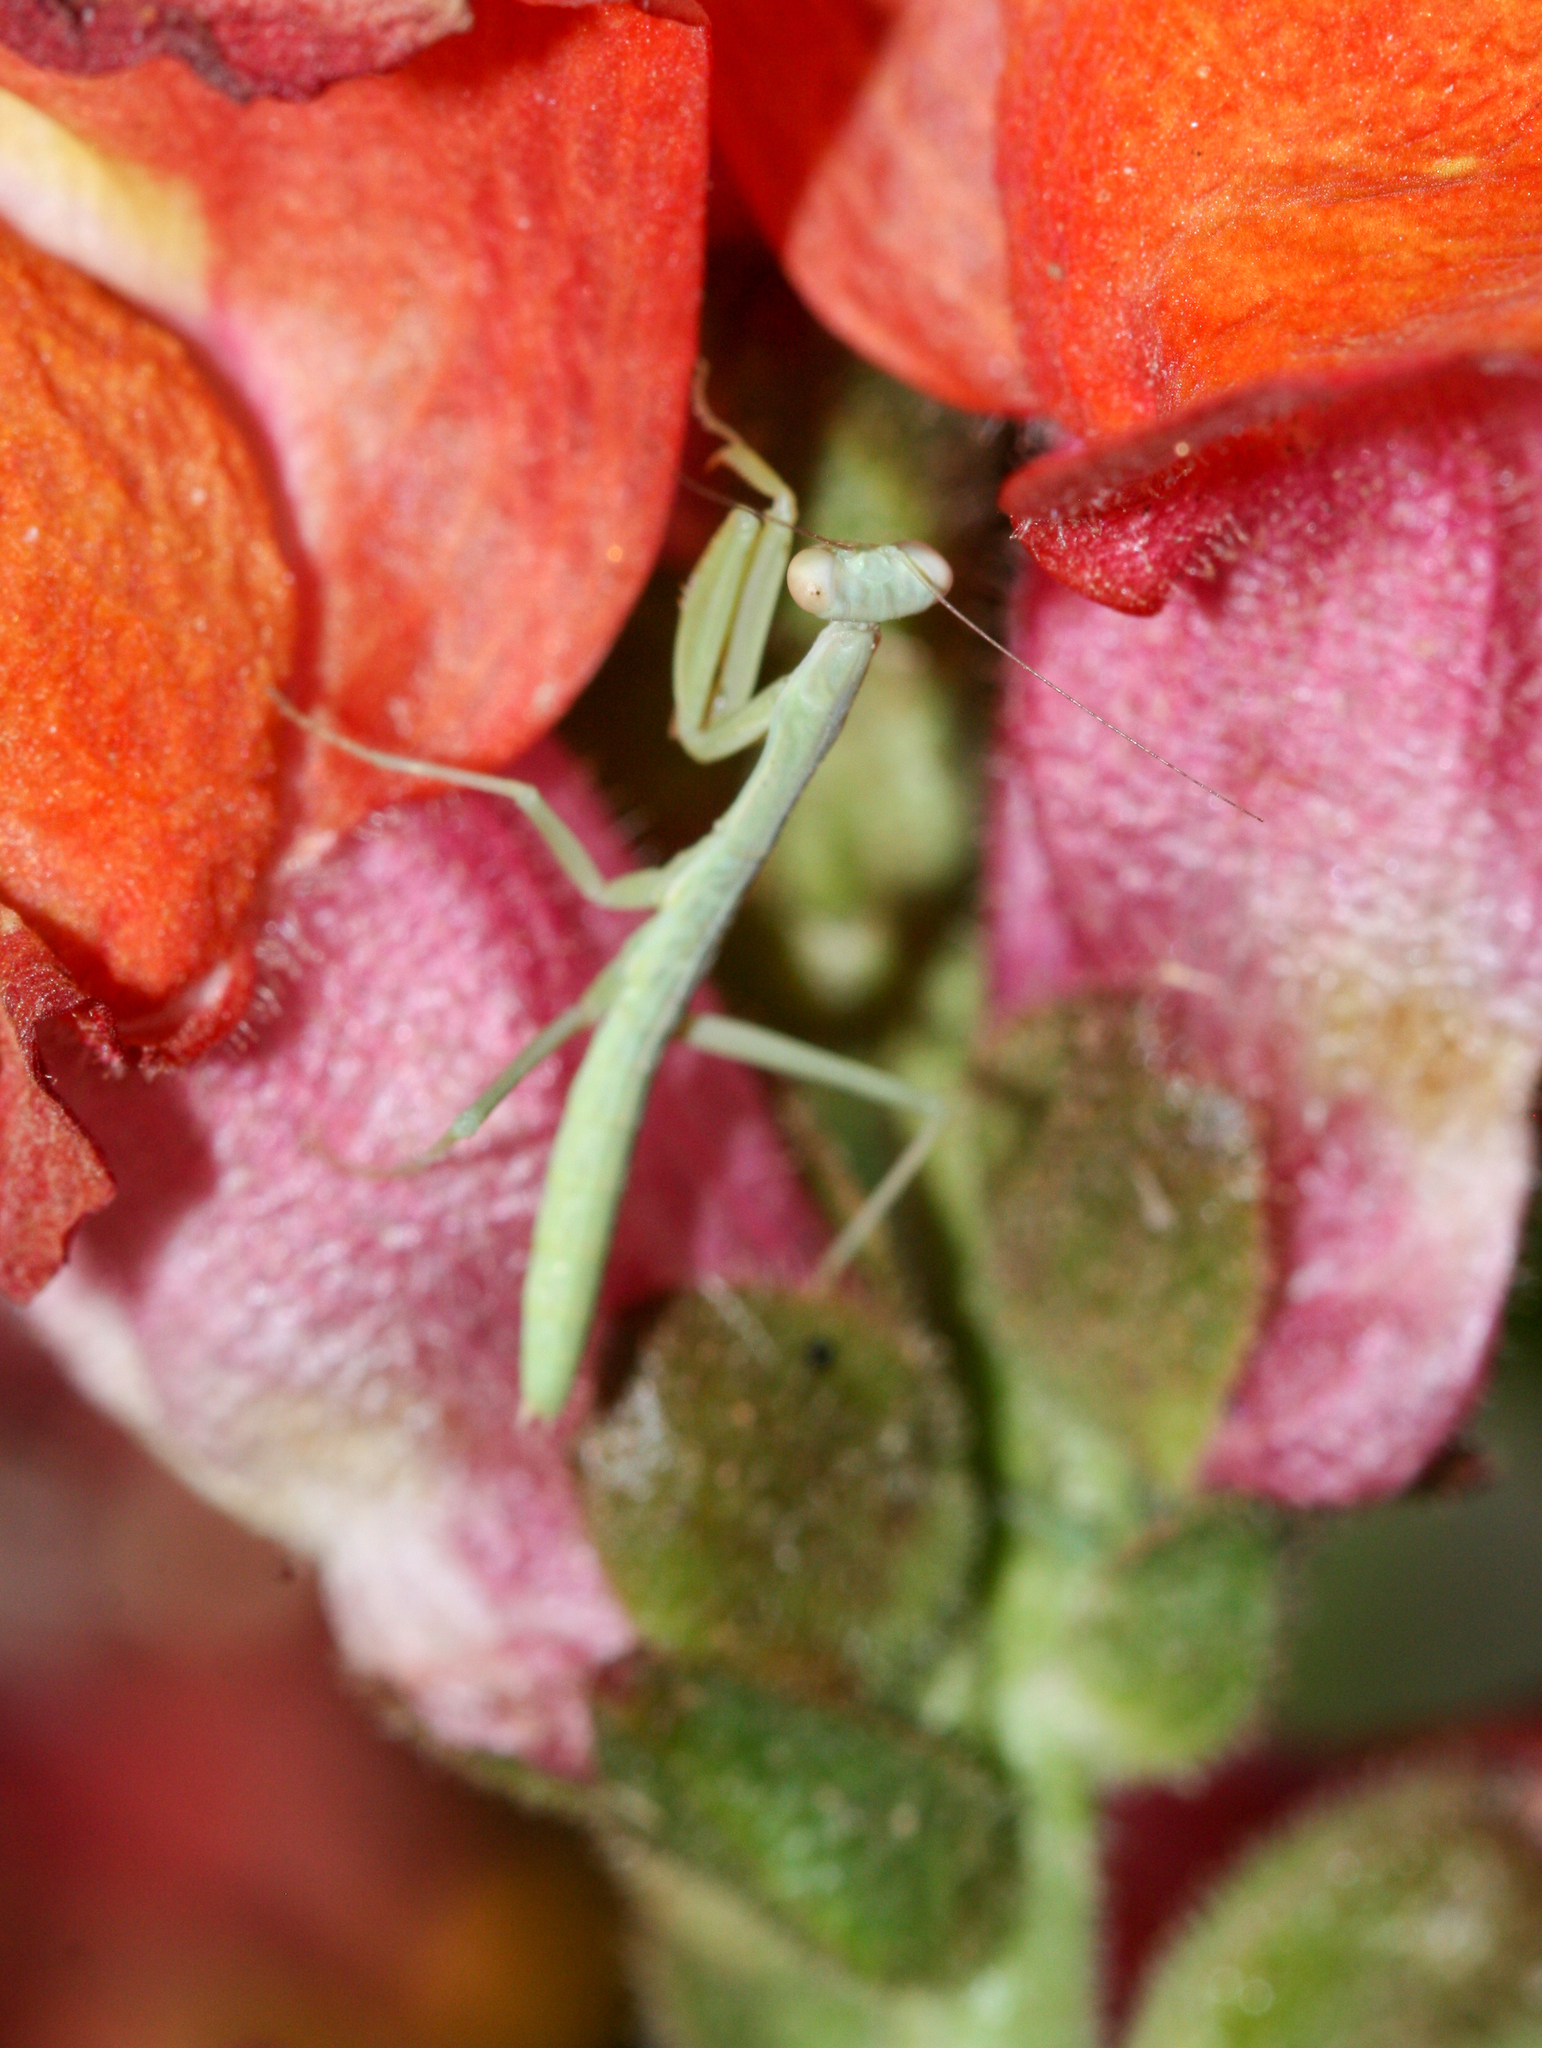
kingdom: Animalia
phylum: Arthropoda
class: Insecta
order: Mantodea
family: Eremiaphilidae
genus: Iris
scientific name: Iris oratoria
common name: Mediterranean mantis
